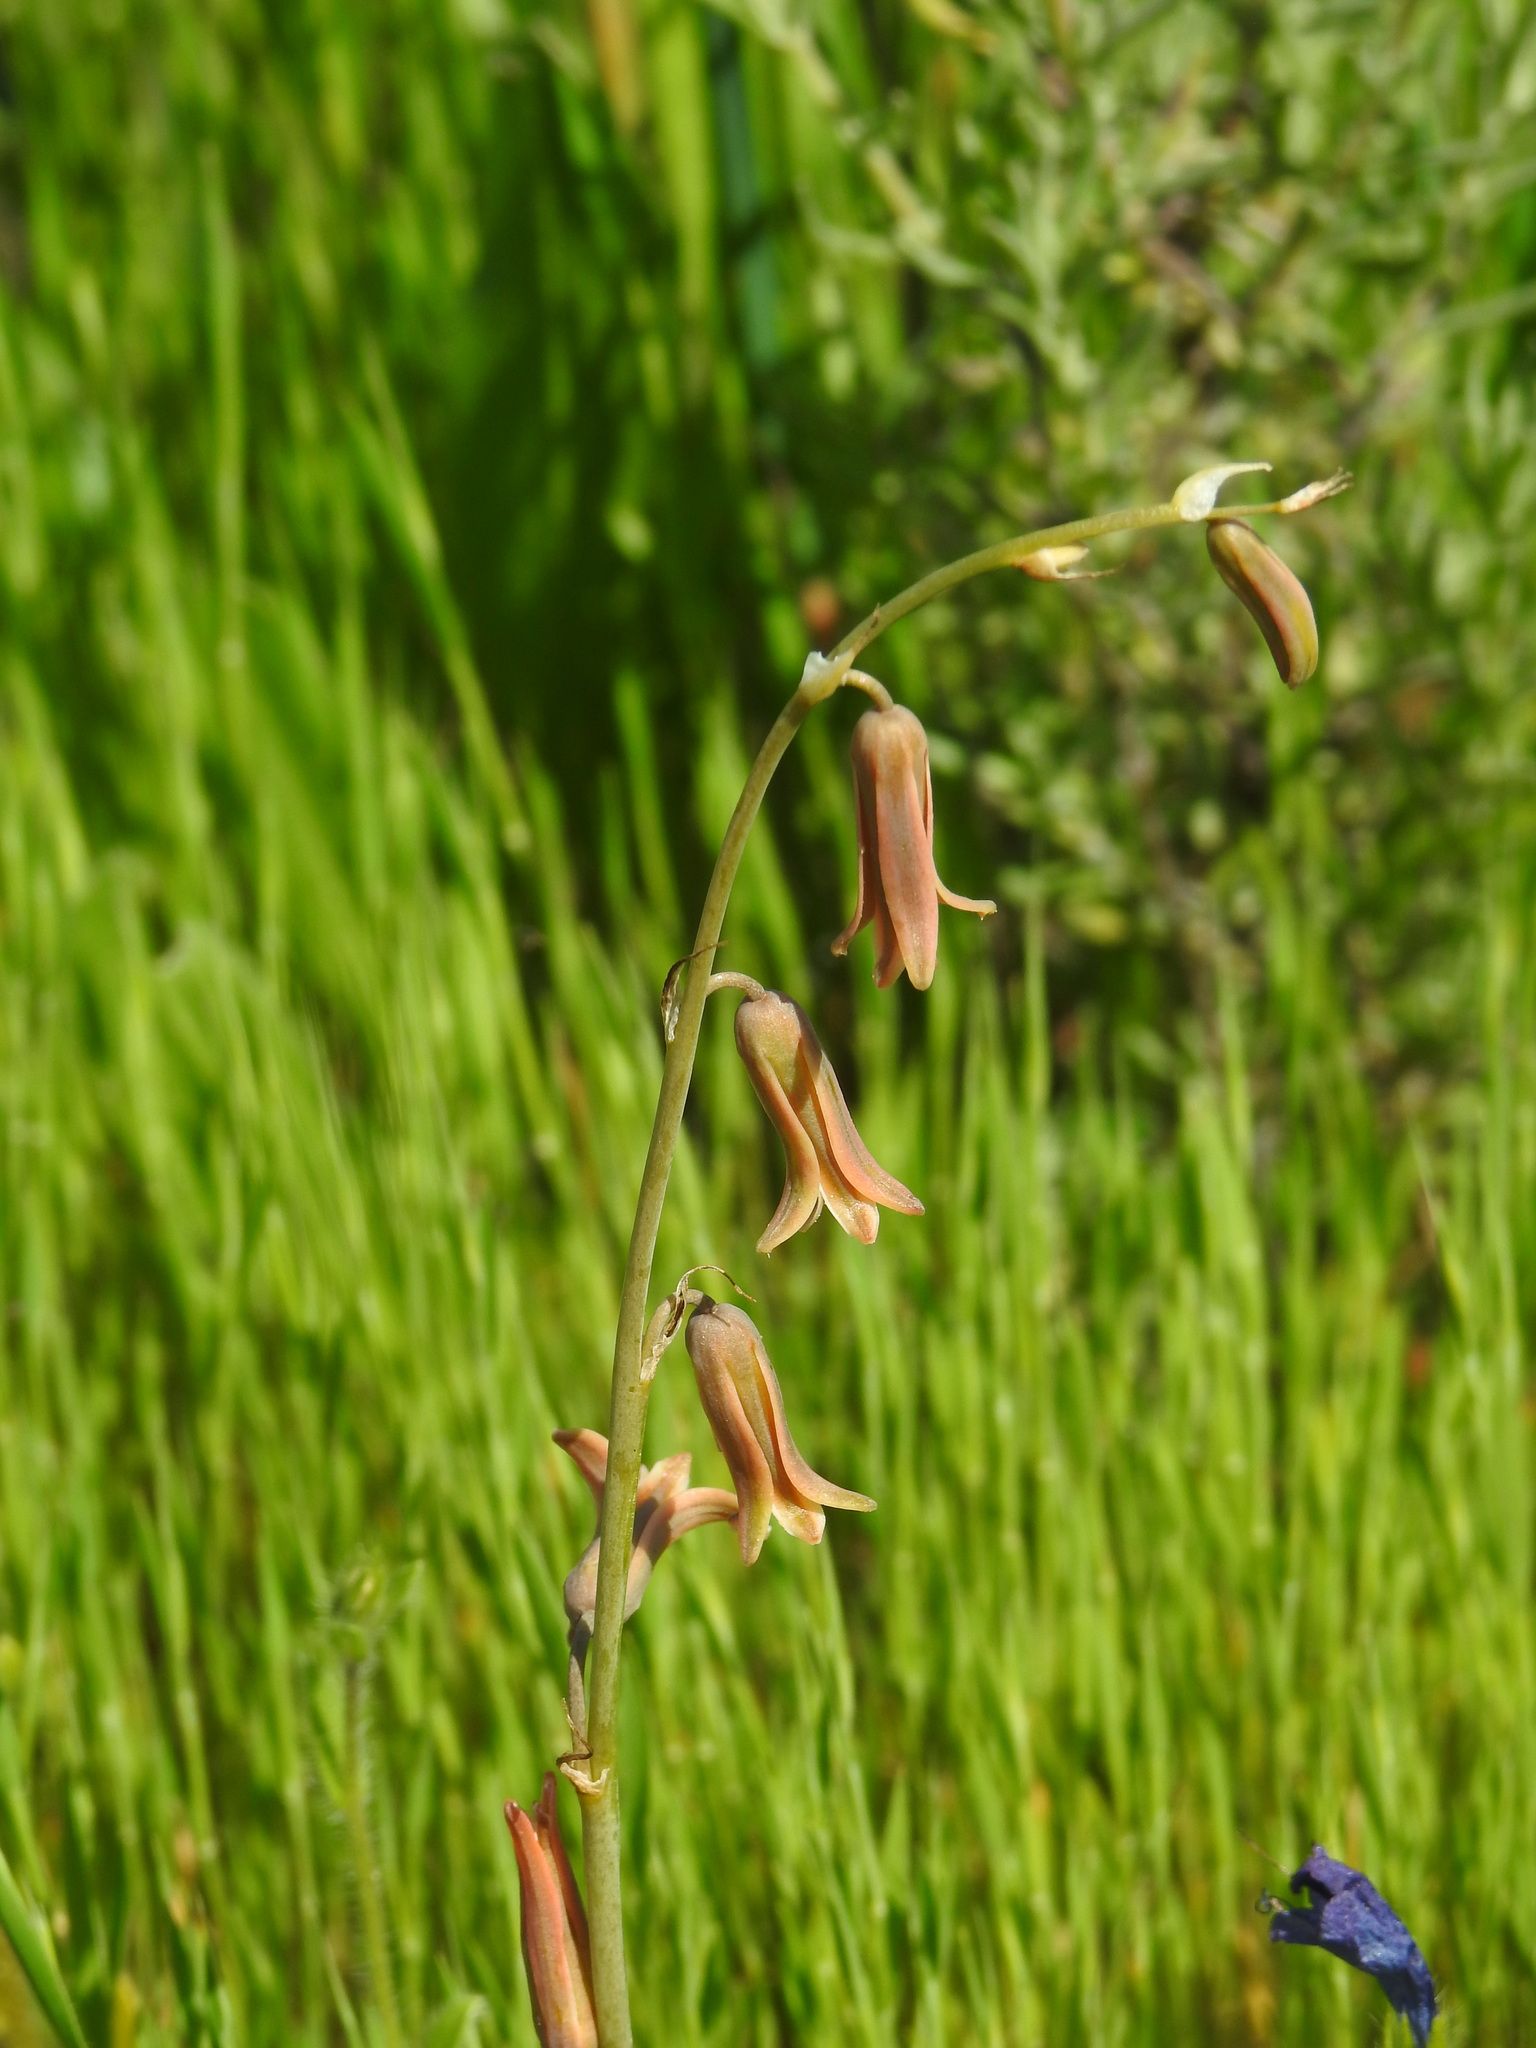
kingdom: Plantae
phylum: Tracheophyta
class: Liliopsida
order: Asparagales
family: Asparagaceae
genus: Dipcadi
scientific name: Dipcadi serotinum
